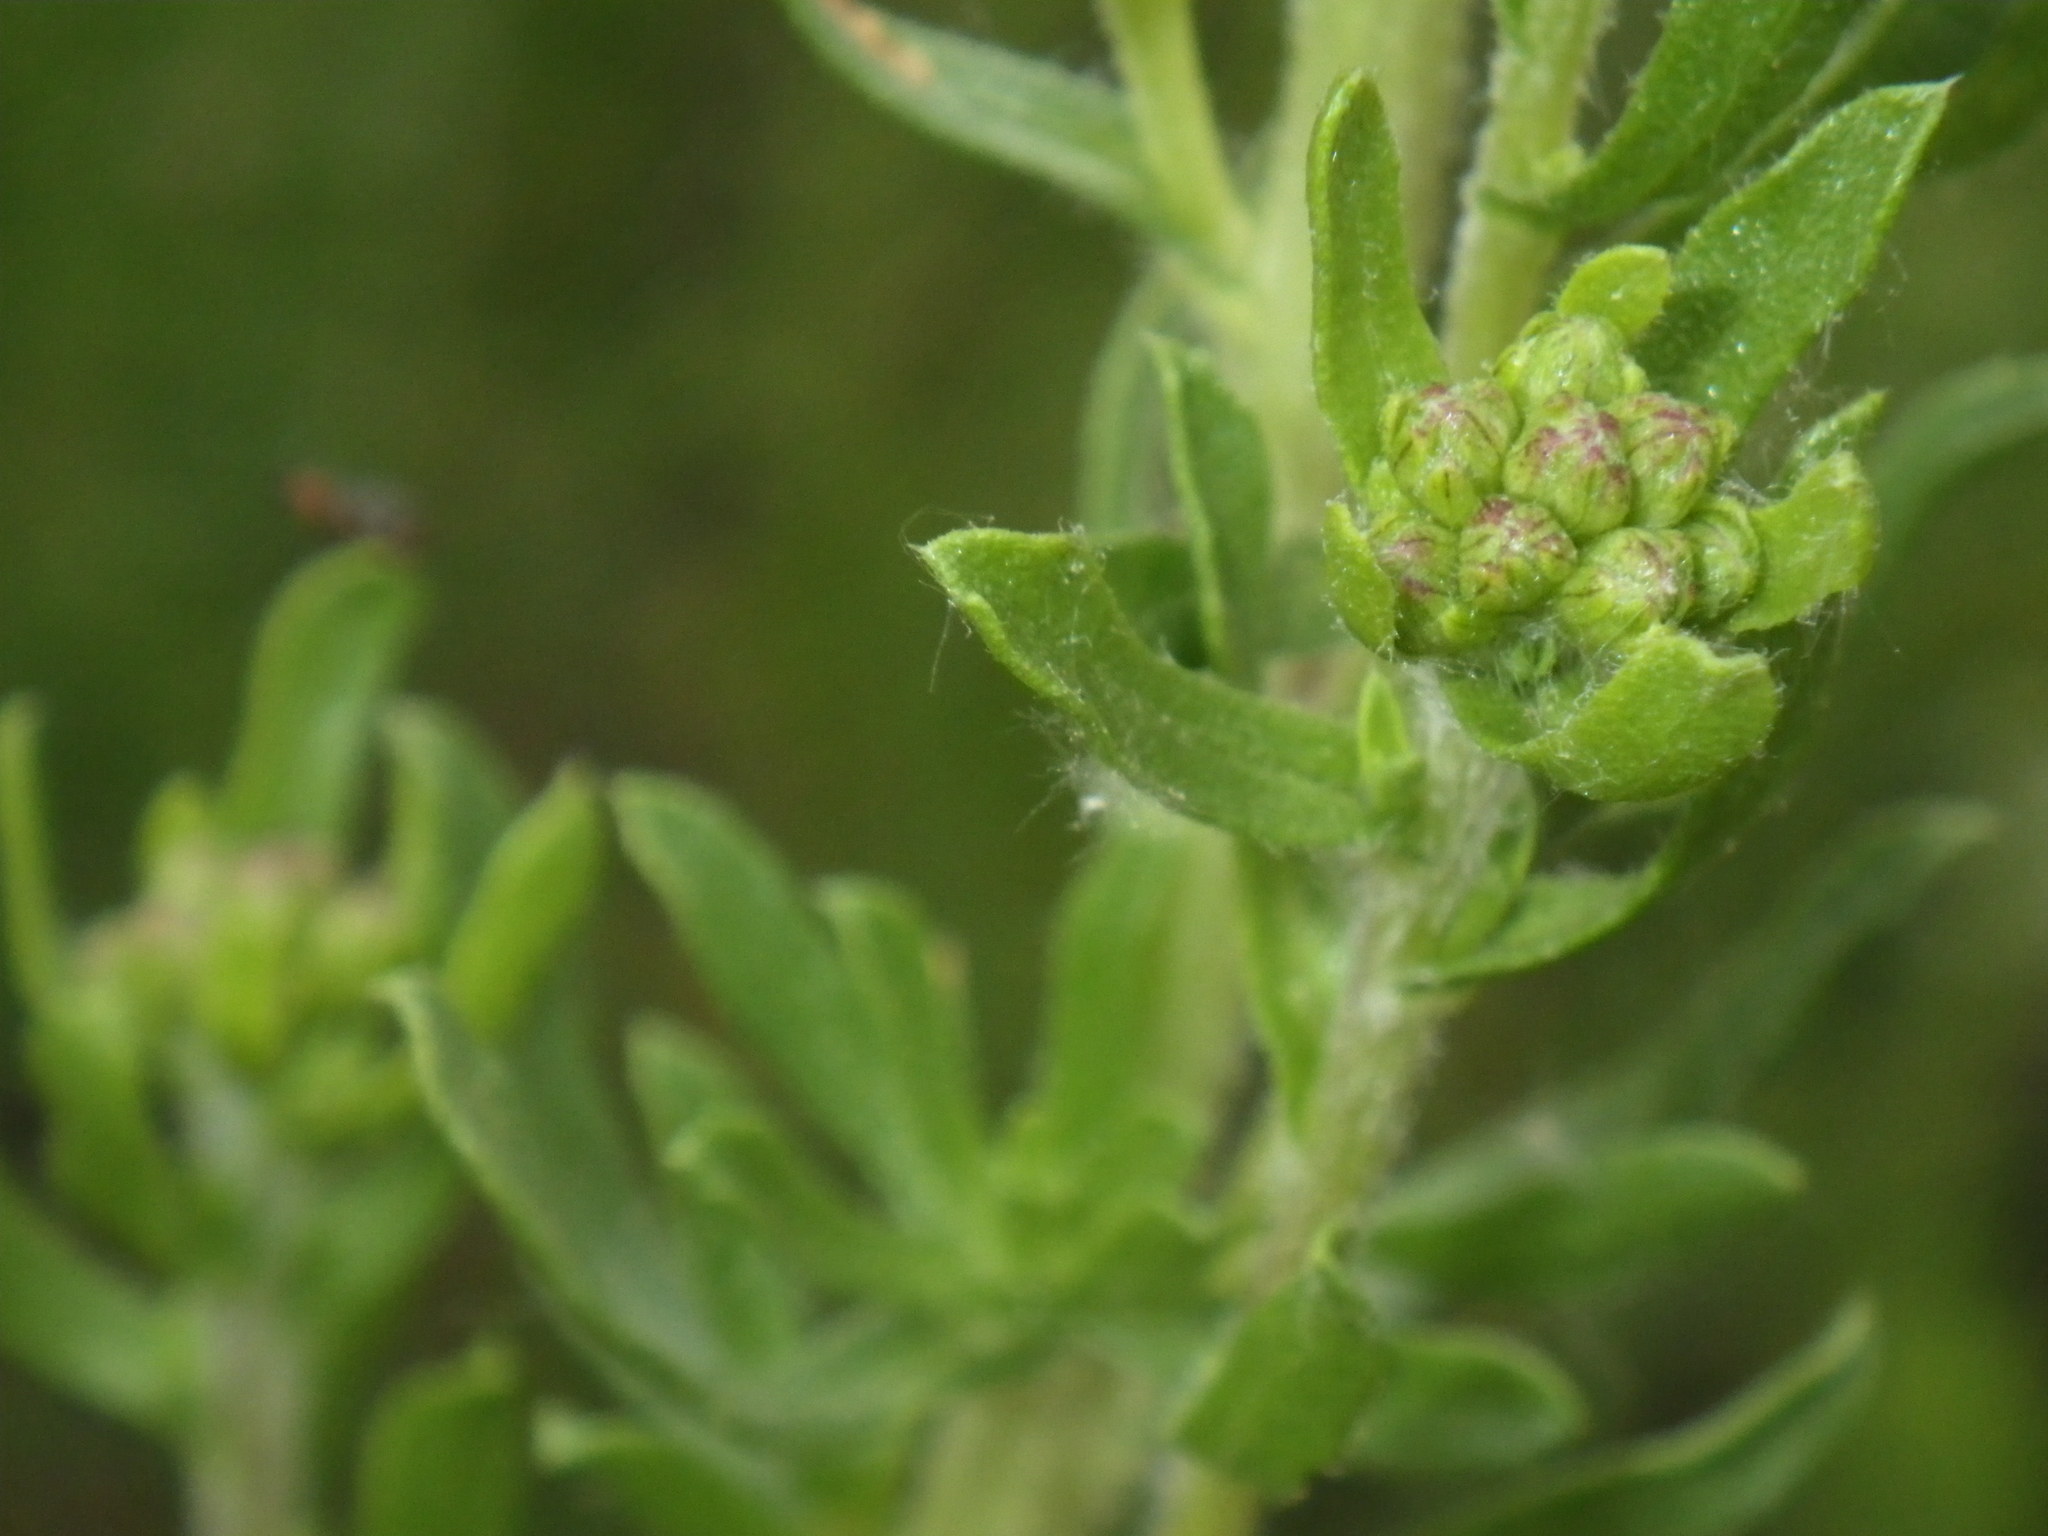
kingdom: Plantae
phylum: Tracheophyta
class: Magnoliopsida
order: Asterales
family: Asteraceae
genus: Isocoma
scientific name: Isocoma menziesii
